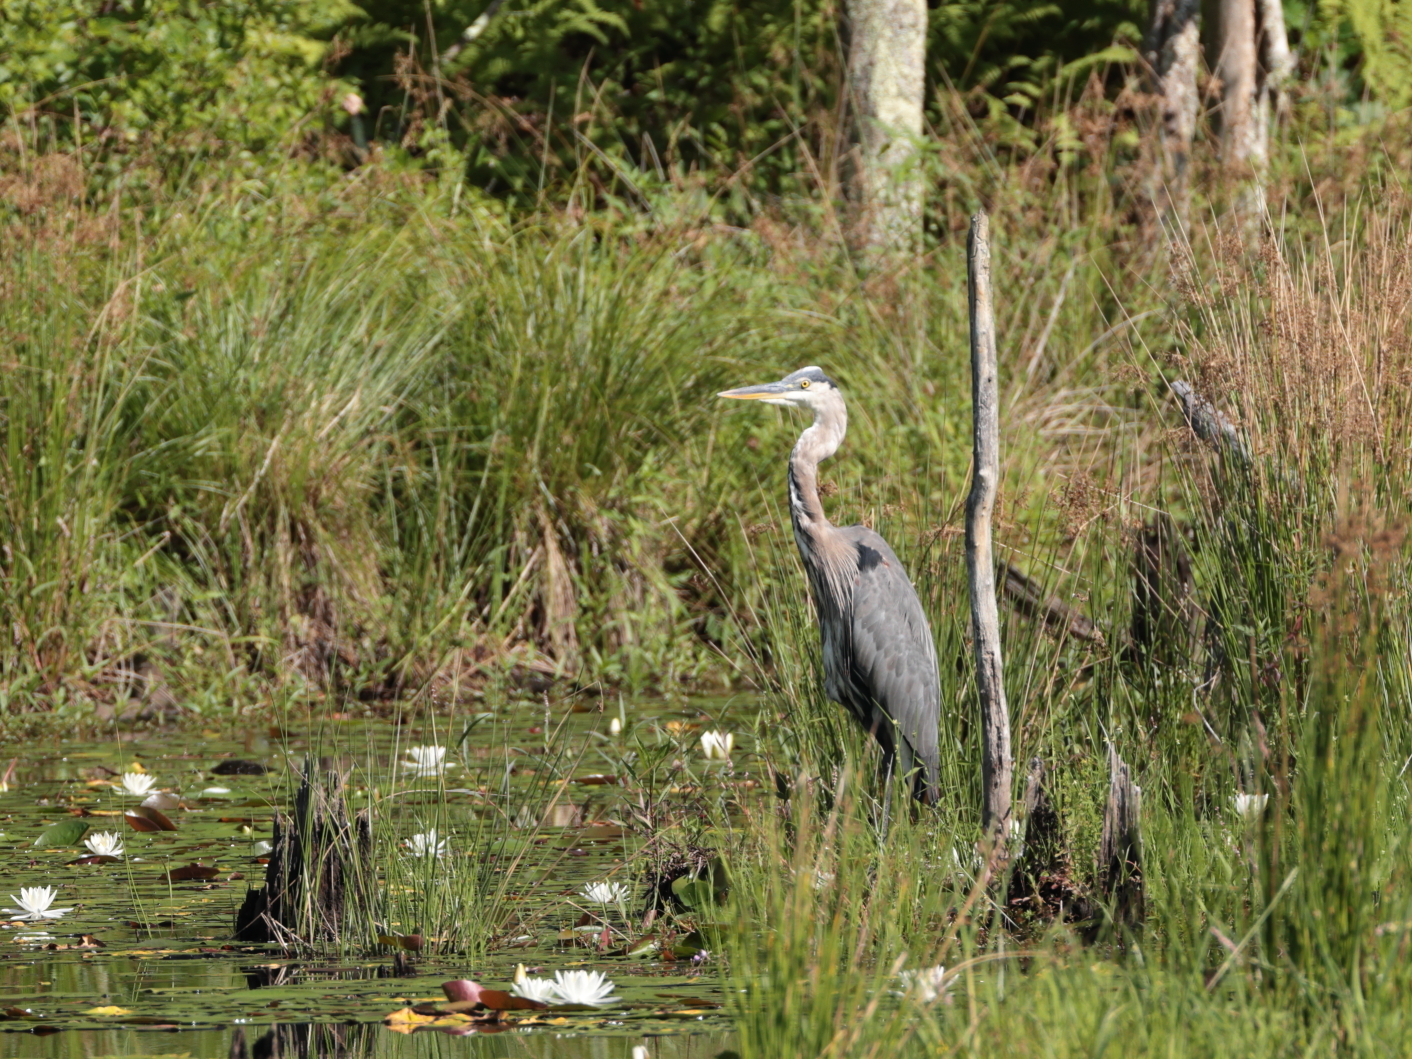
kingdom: Animalia
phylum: Chordata
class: Aves
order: Pelecaniformes
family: Ardeidae
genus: Ardea
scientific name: Ardea herodias
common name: Great blue heron
